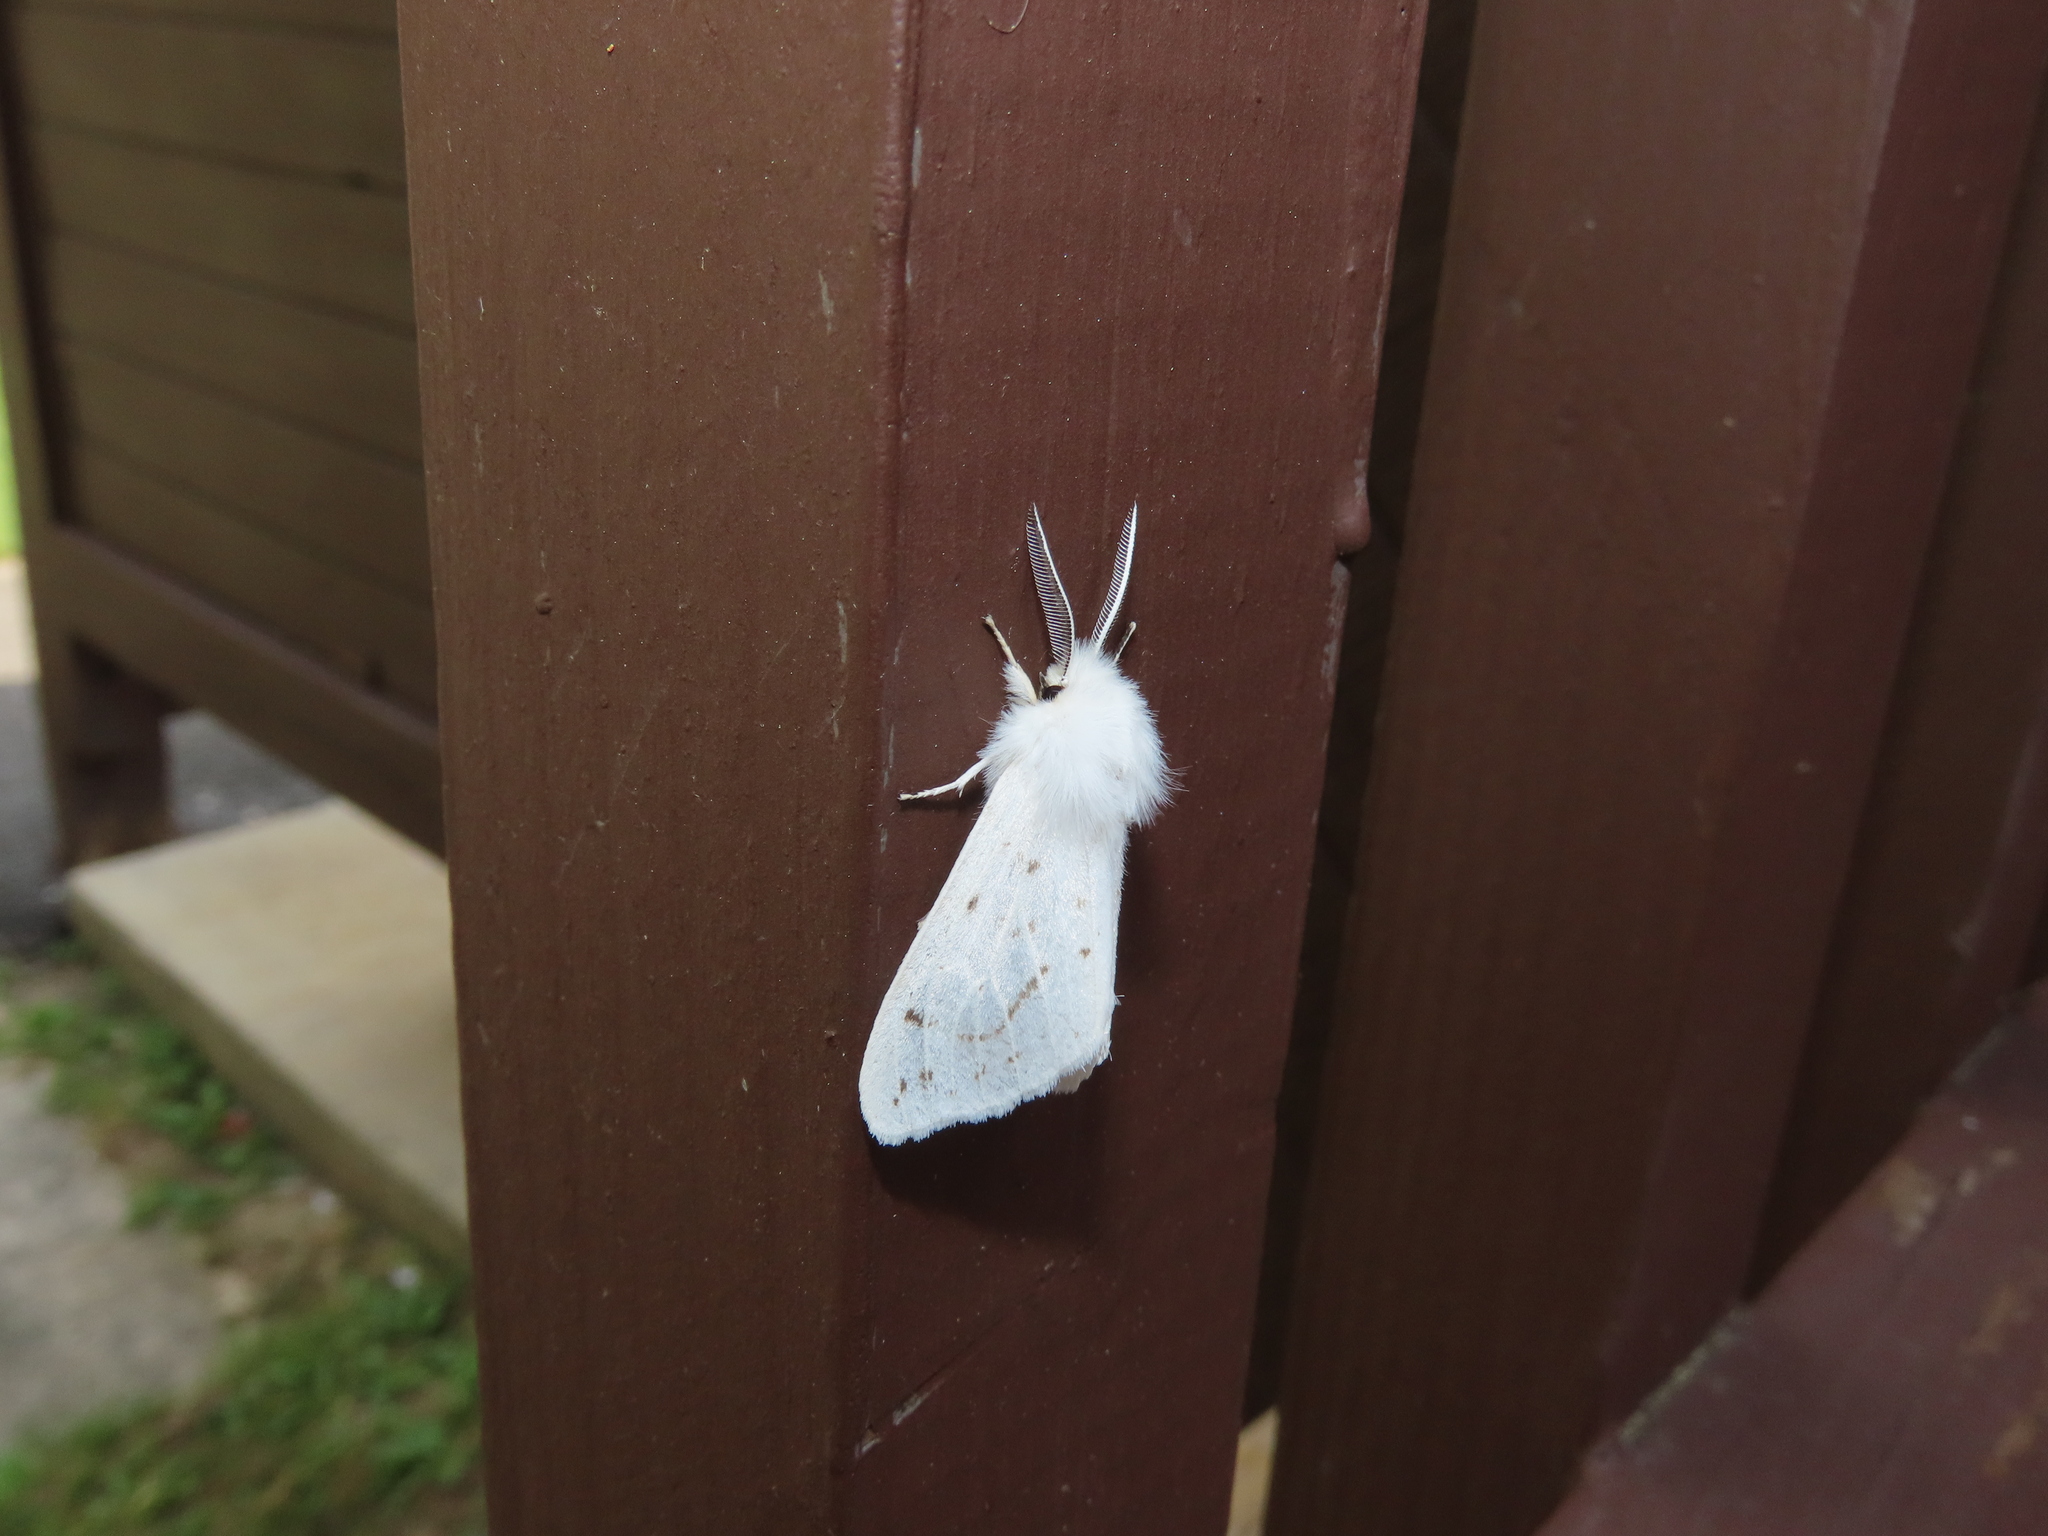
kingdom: Animalia
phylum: Arthropoda
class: Insecta
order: Lepidoptera
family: Erebidae
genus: Spilosoma
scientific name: Spilosoma congrua
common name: Agreeable tiger moth
